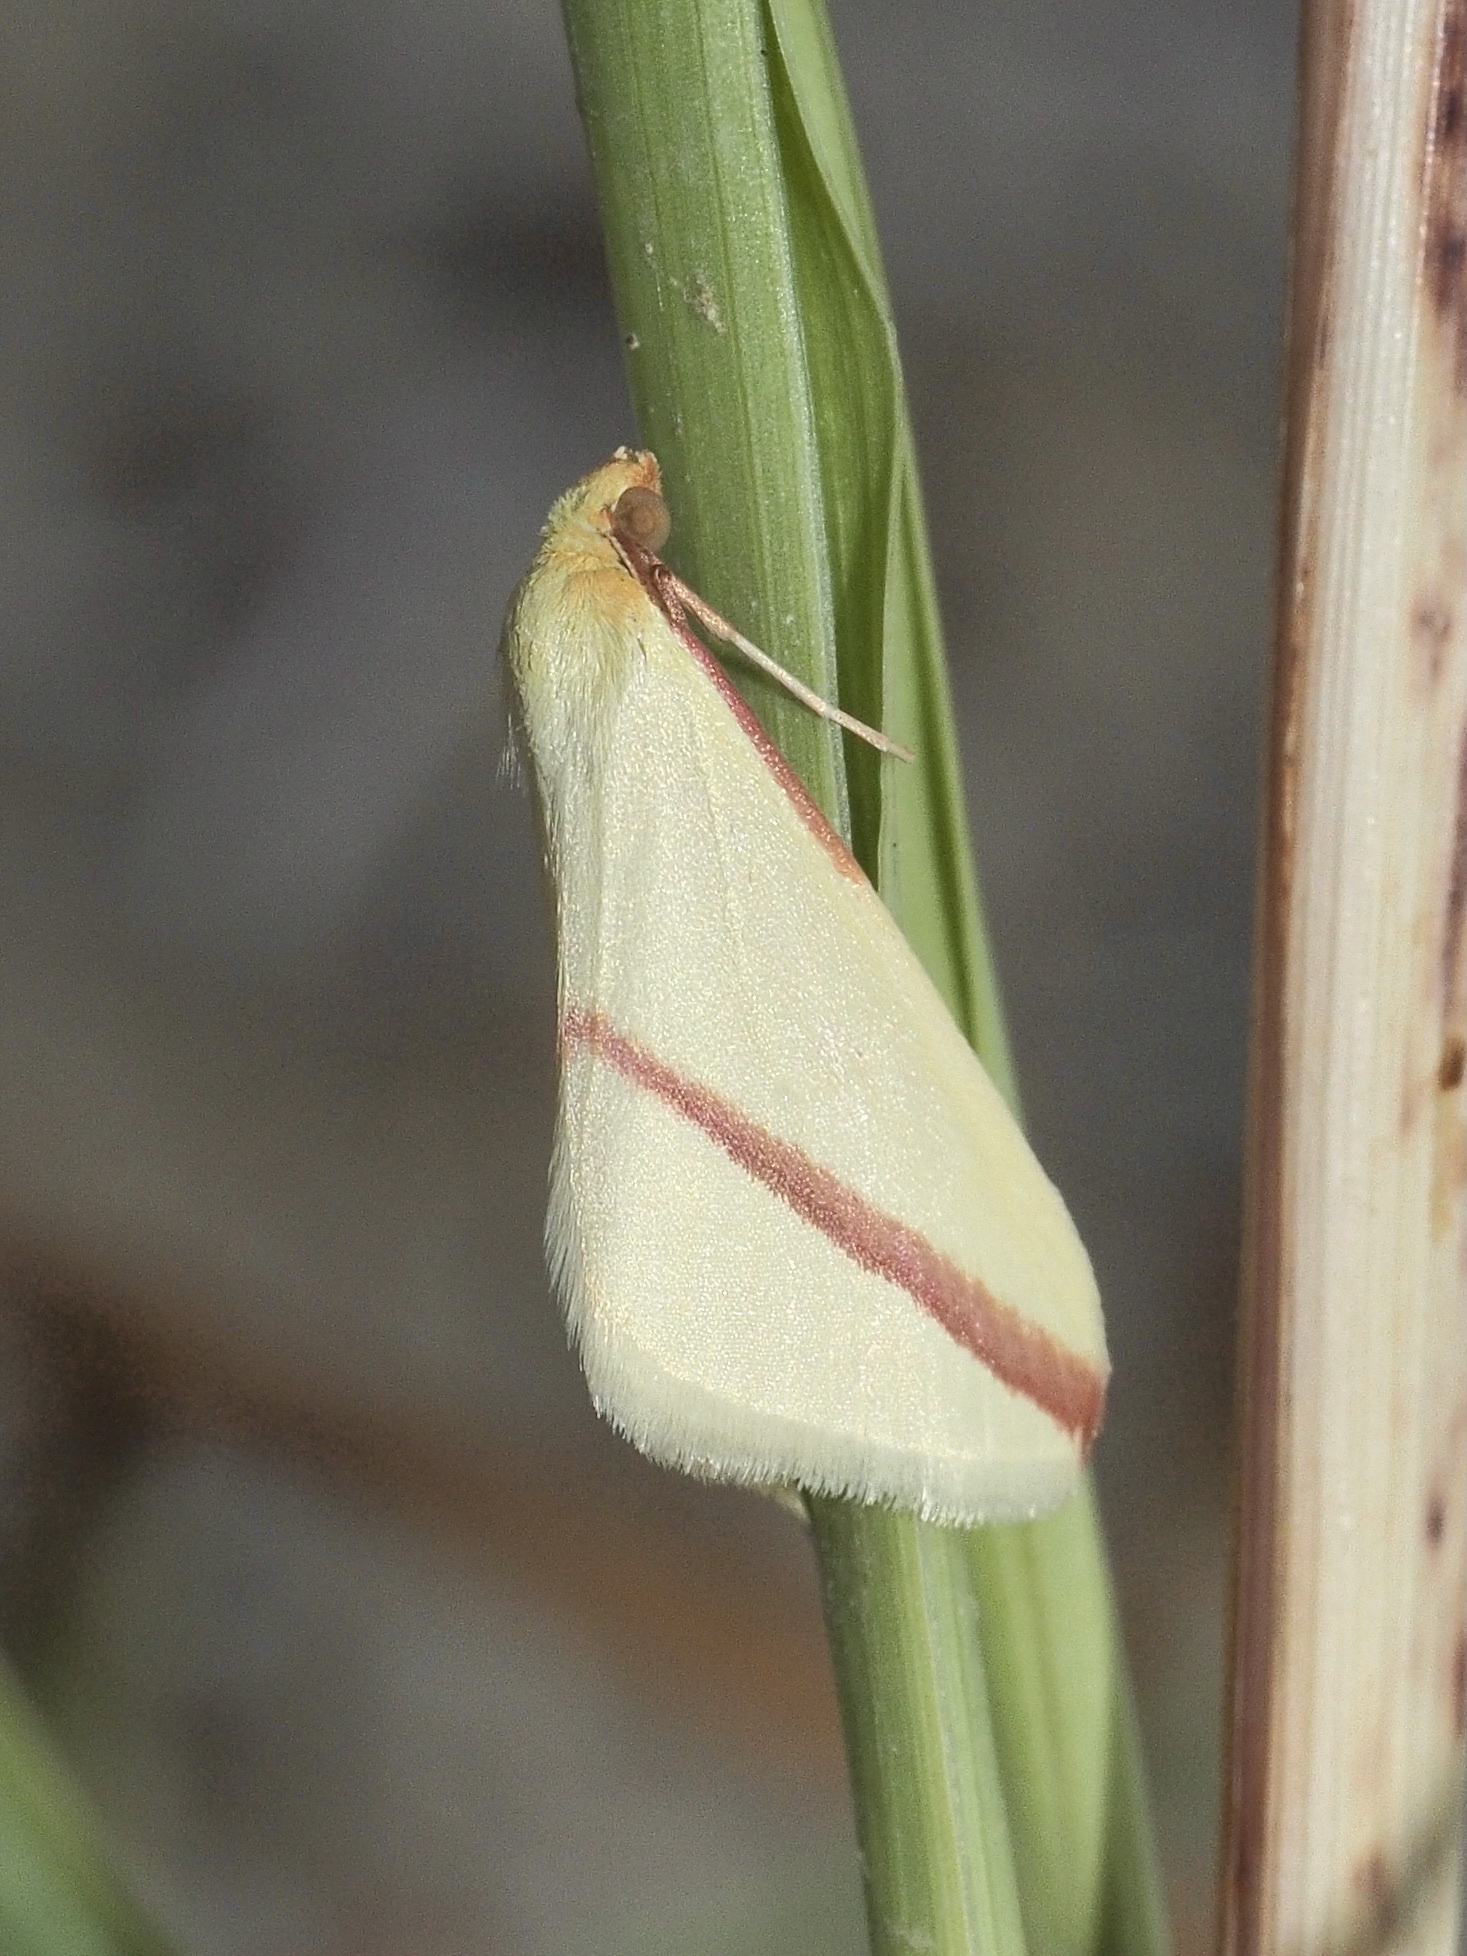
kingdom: Animalia
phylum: Arthropoda
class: Insecta
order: Lepidoptera
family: Geometridae
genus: Rhodometra
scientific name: Rhodometra sacraria
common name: Vestal
